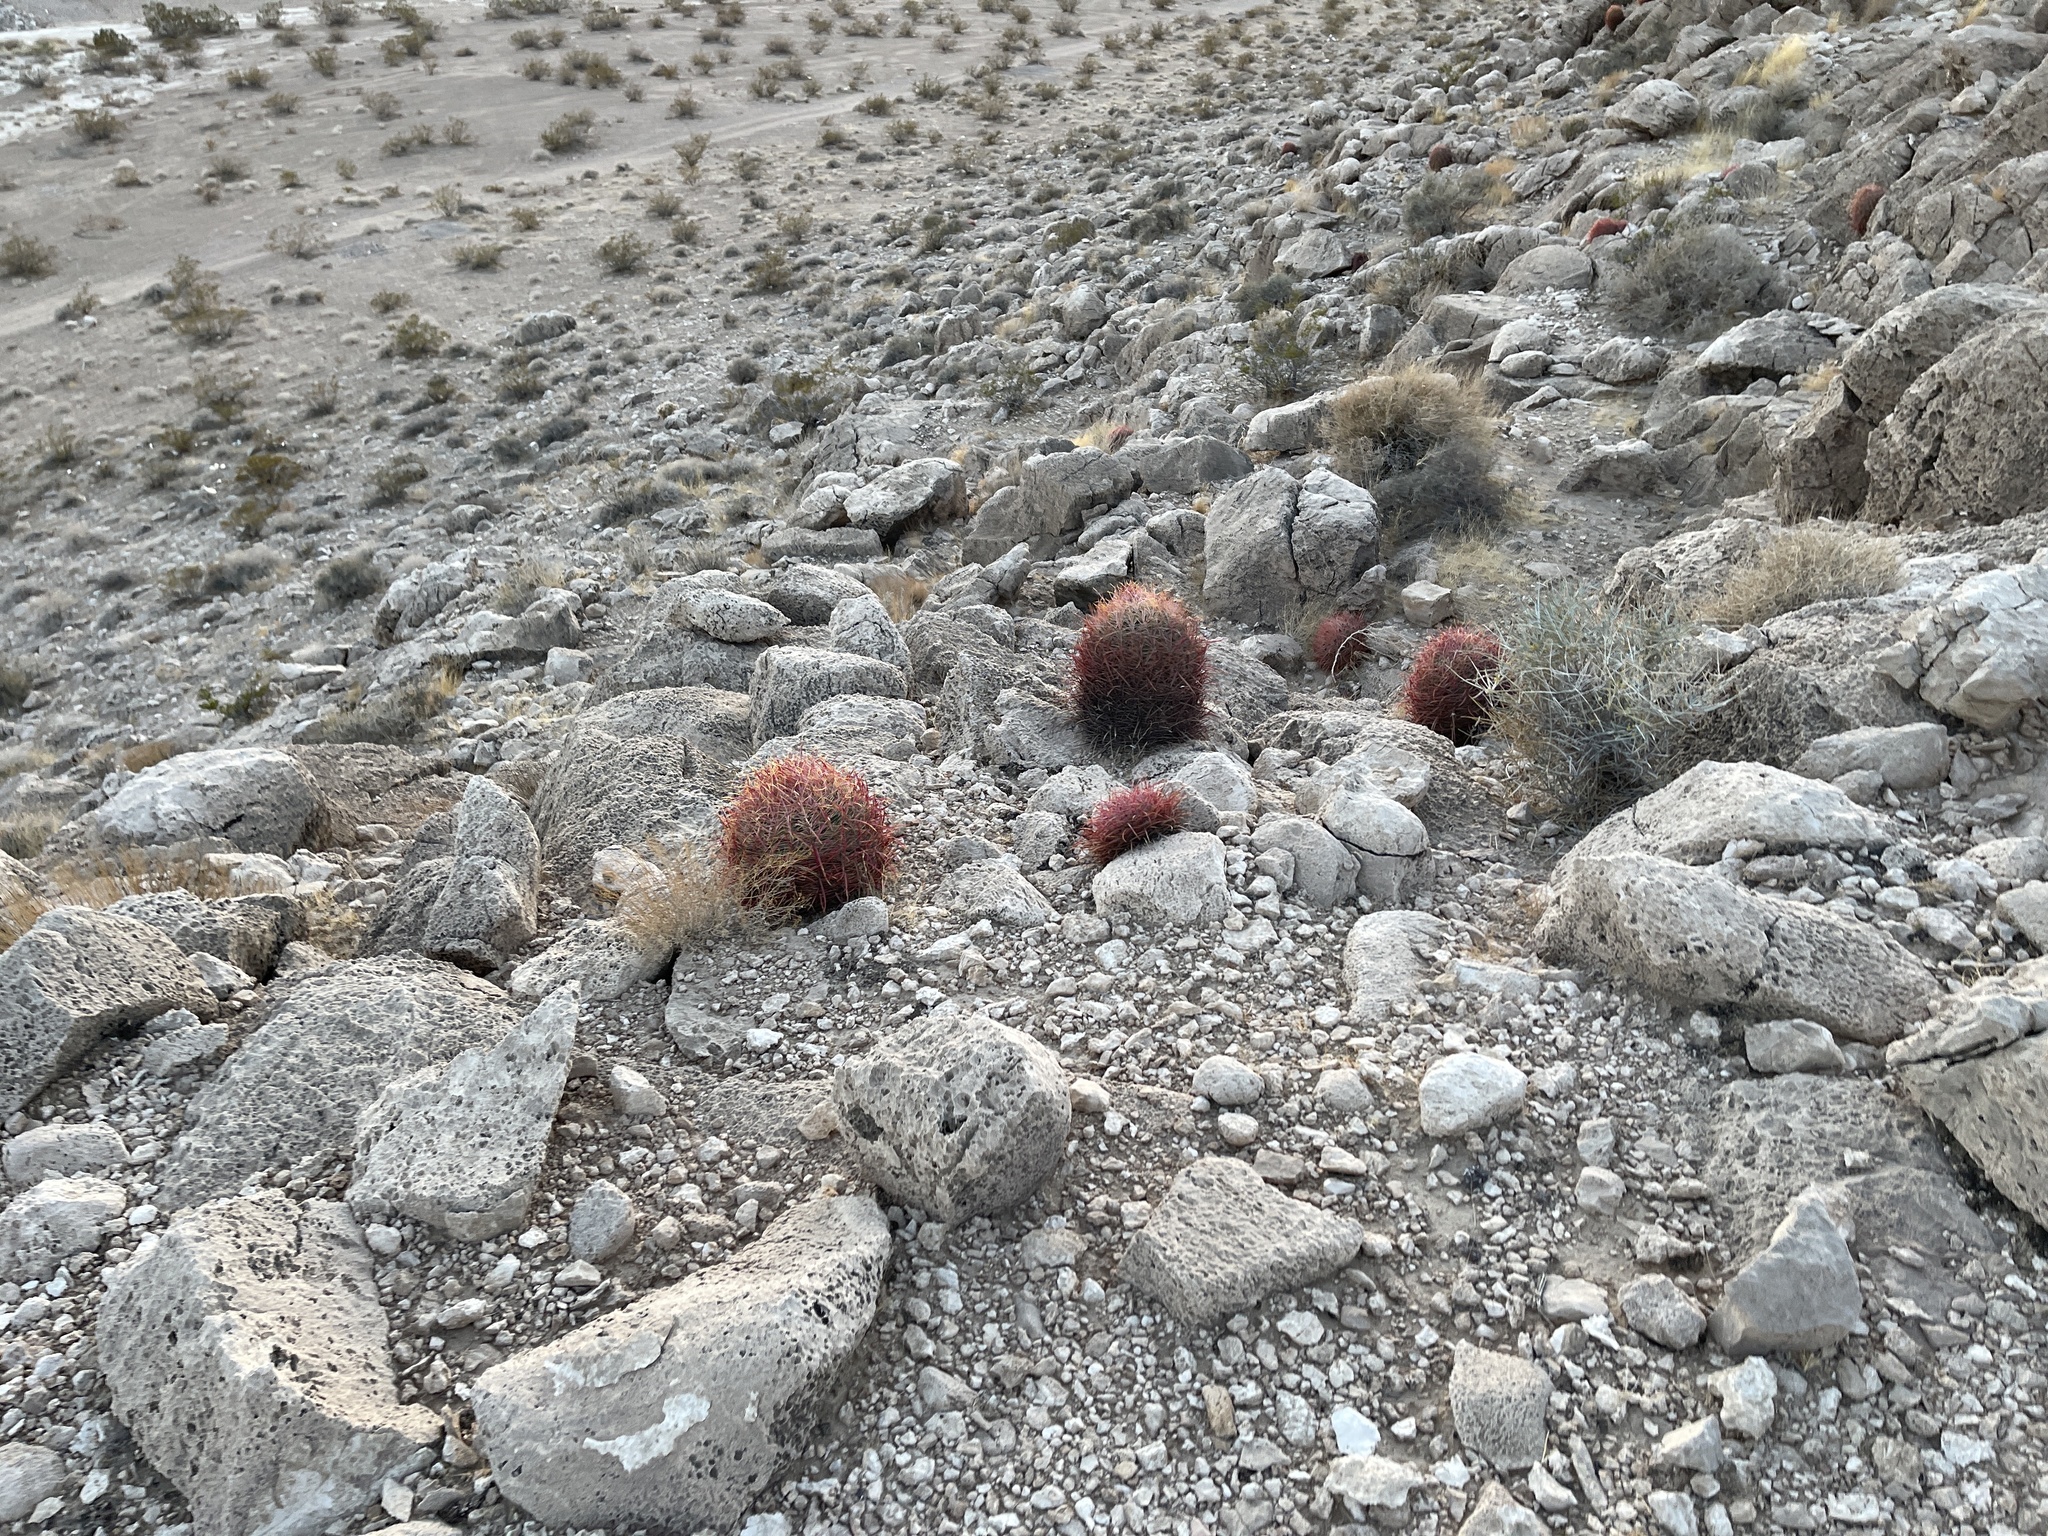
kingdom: Plantae
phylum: Tracheophyta
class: Magnoliopsida
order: Caryophyllales
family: Cactaceae
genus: Ferocactus
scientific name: Ferocactus cylindraceus
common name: California barrel cactus
